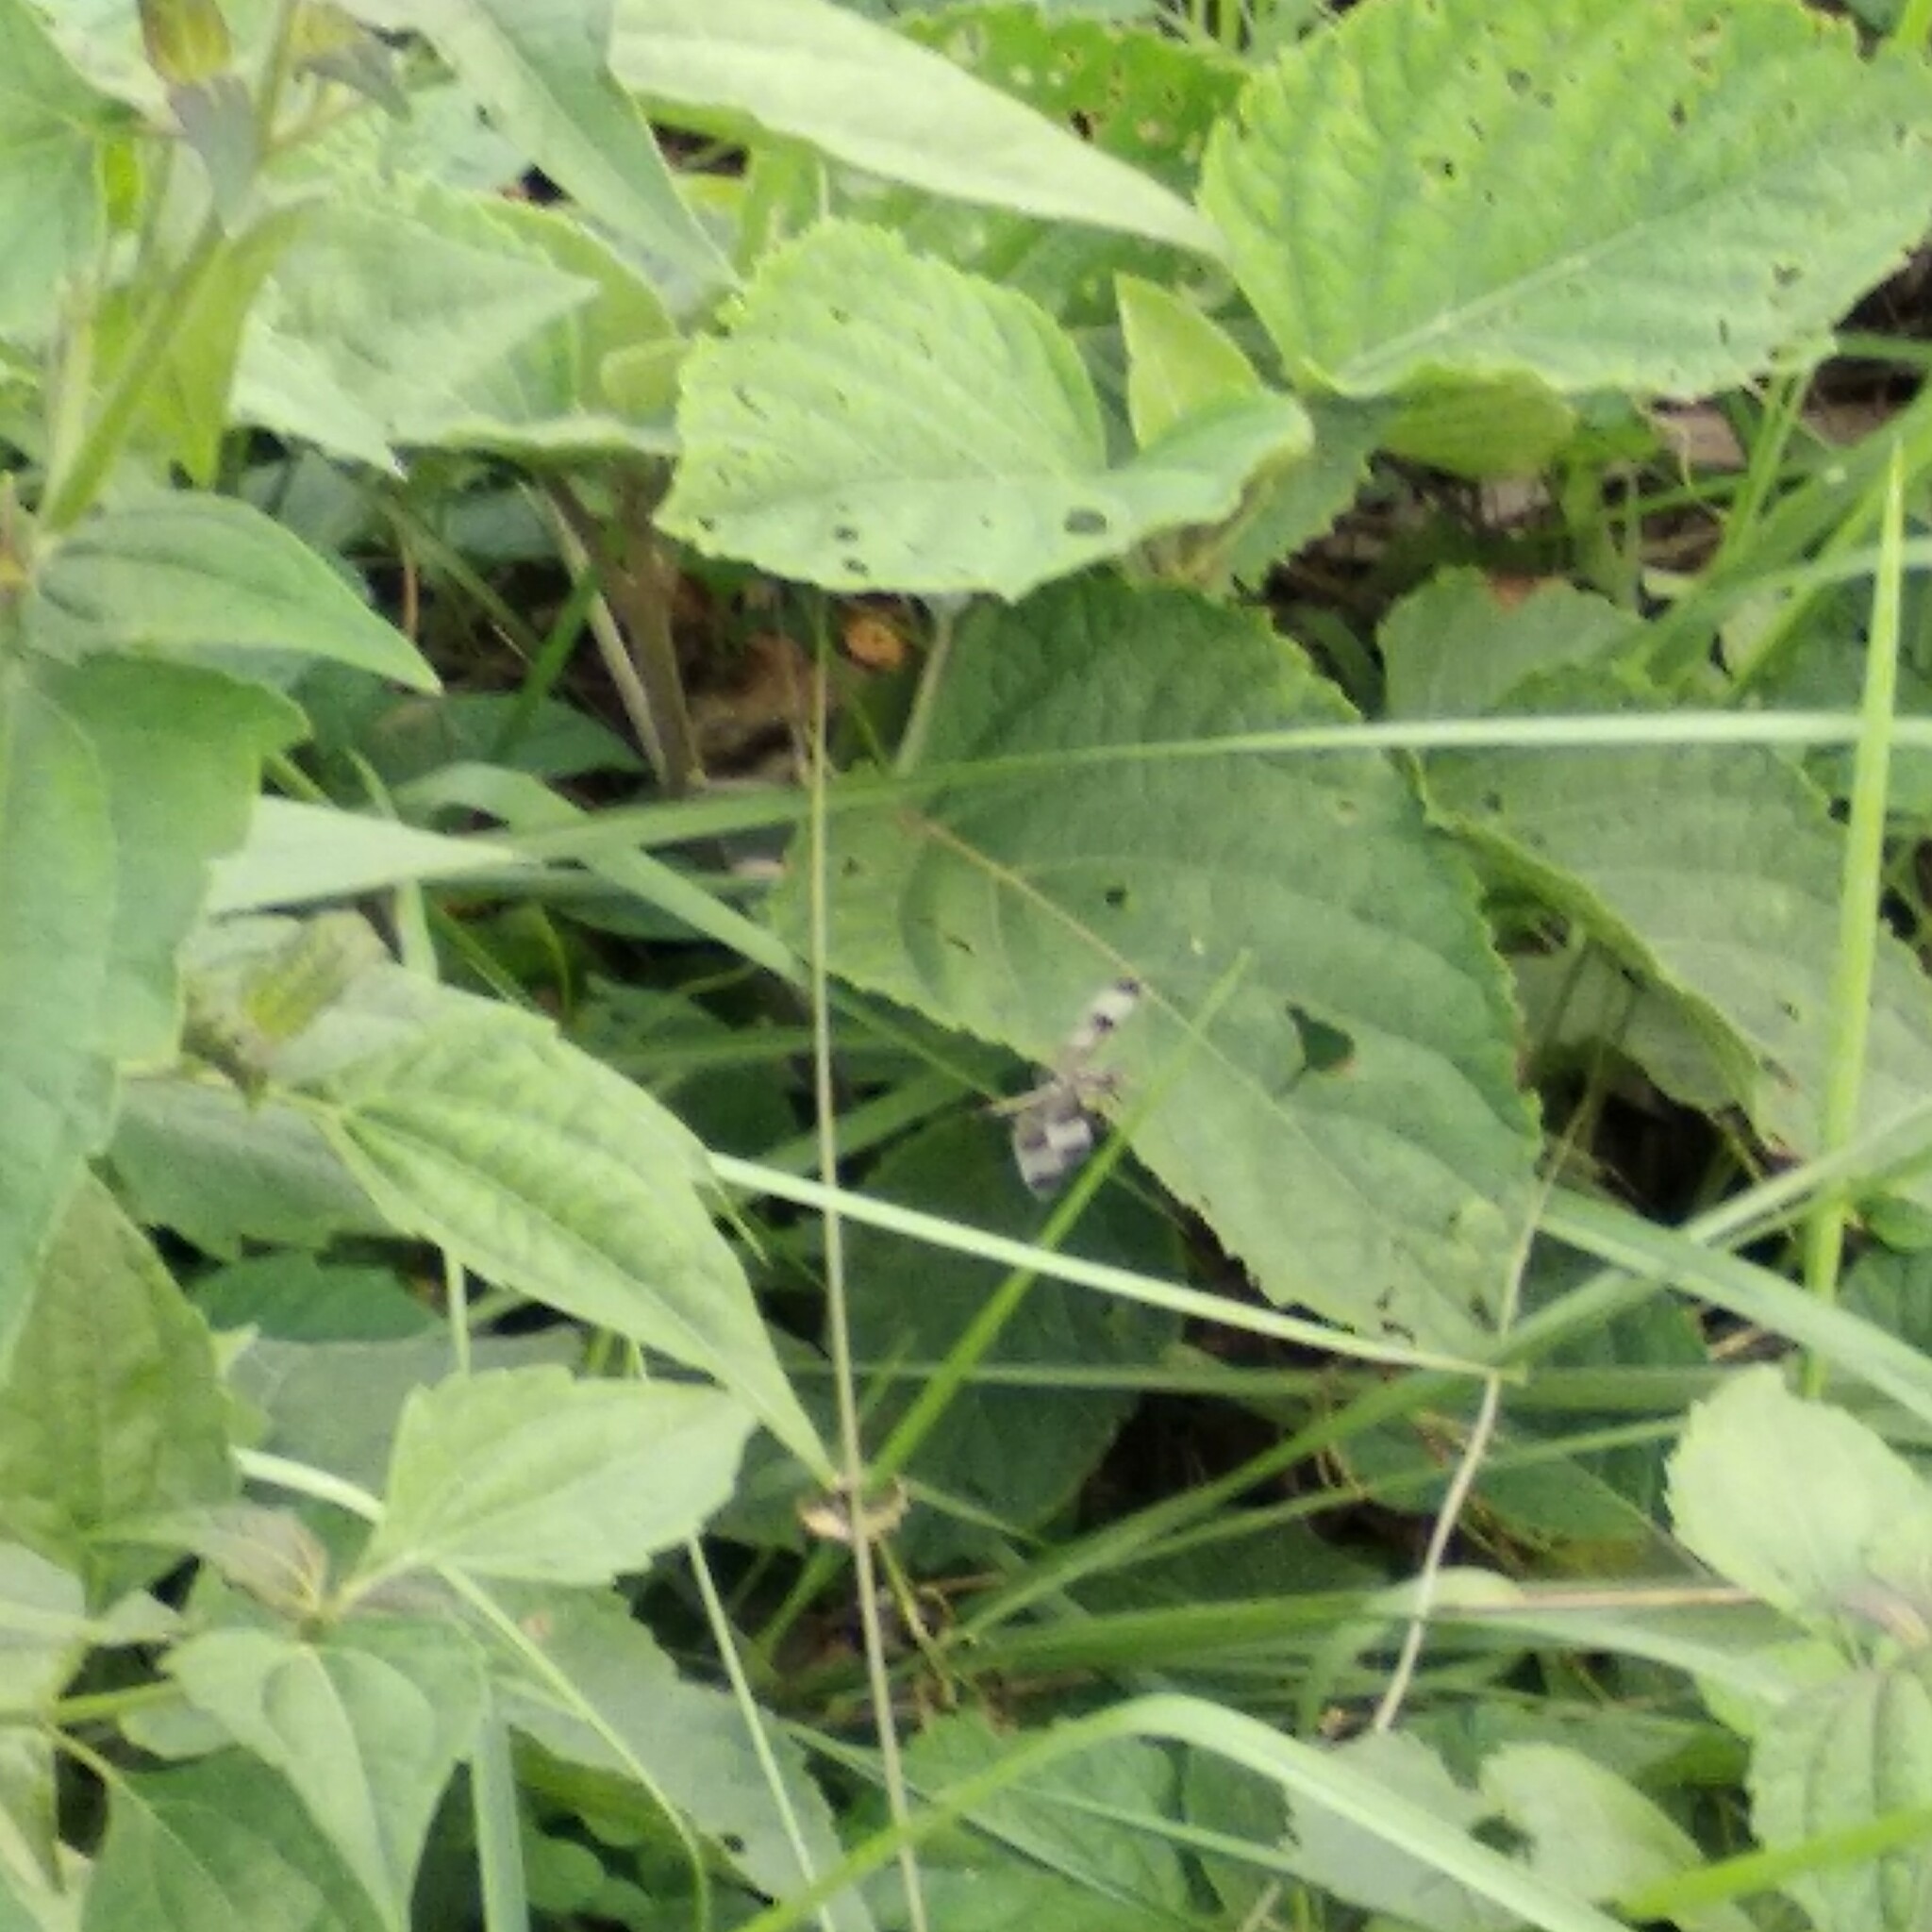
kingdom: Animalia
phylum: Arthropoda
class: Insecta
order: Odonata
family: Libellulidae
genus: Neurothemis
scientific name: Neurothemis tullia
